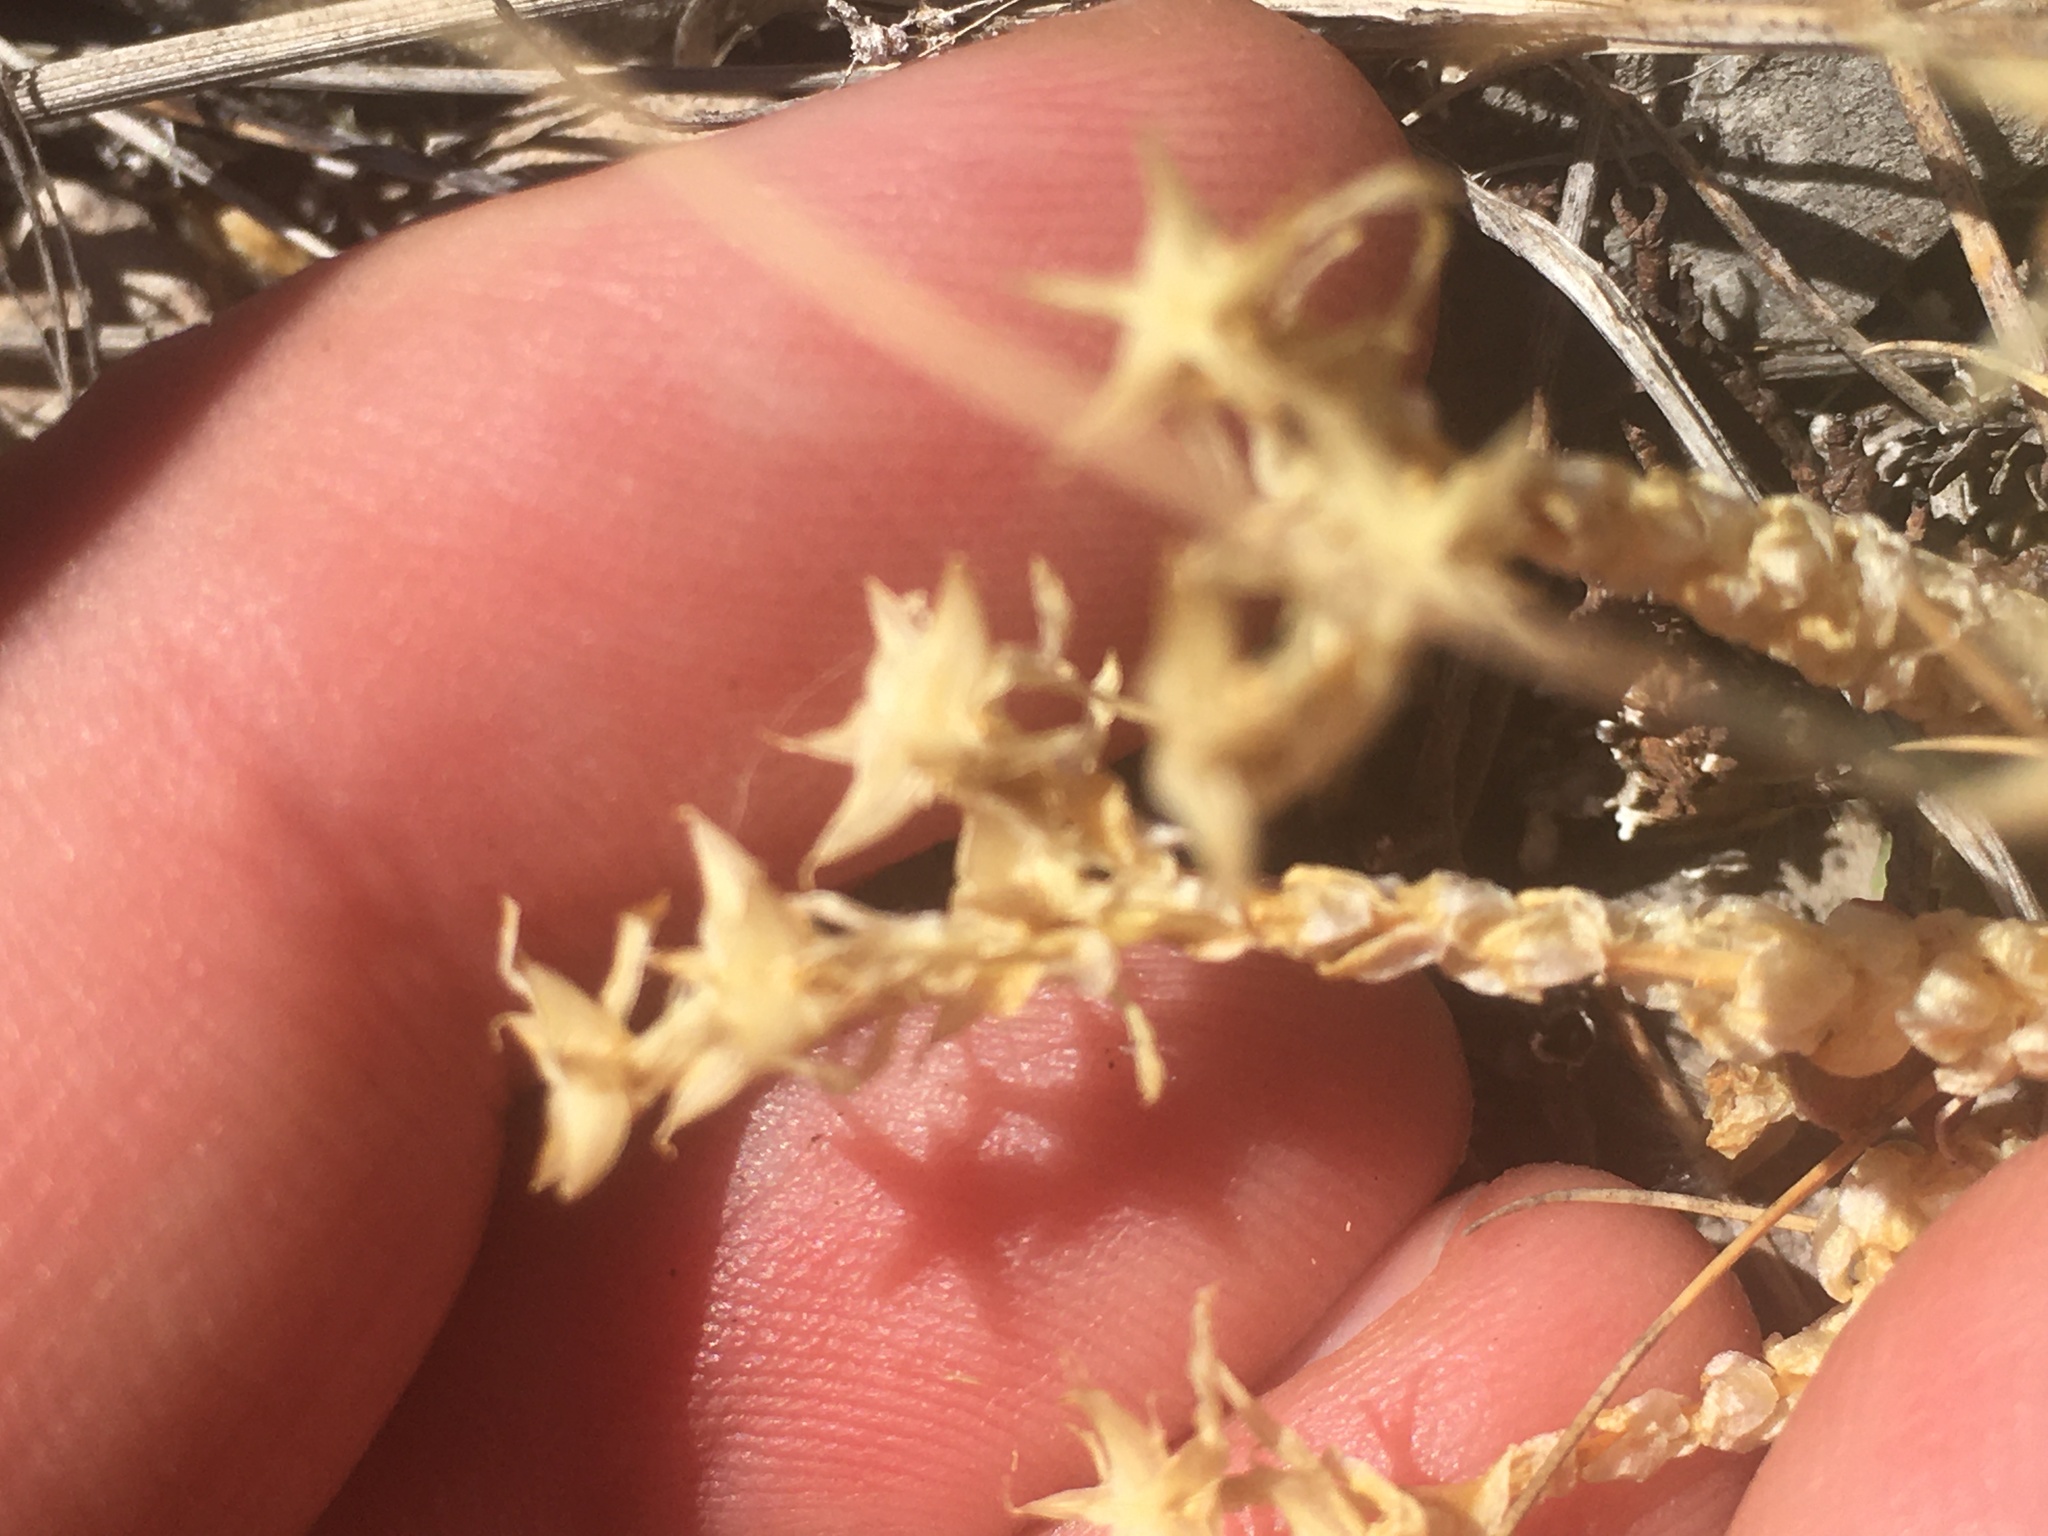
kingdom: Plantae
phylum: Tracheophyta
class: Magnoliopsida
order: Saxifragales
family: Crassulaceae
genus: Sedum
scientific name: Sedum acre
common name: Biting stonecrop
